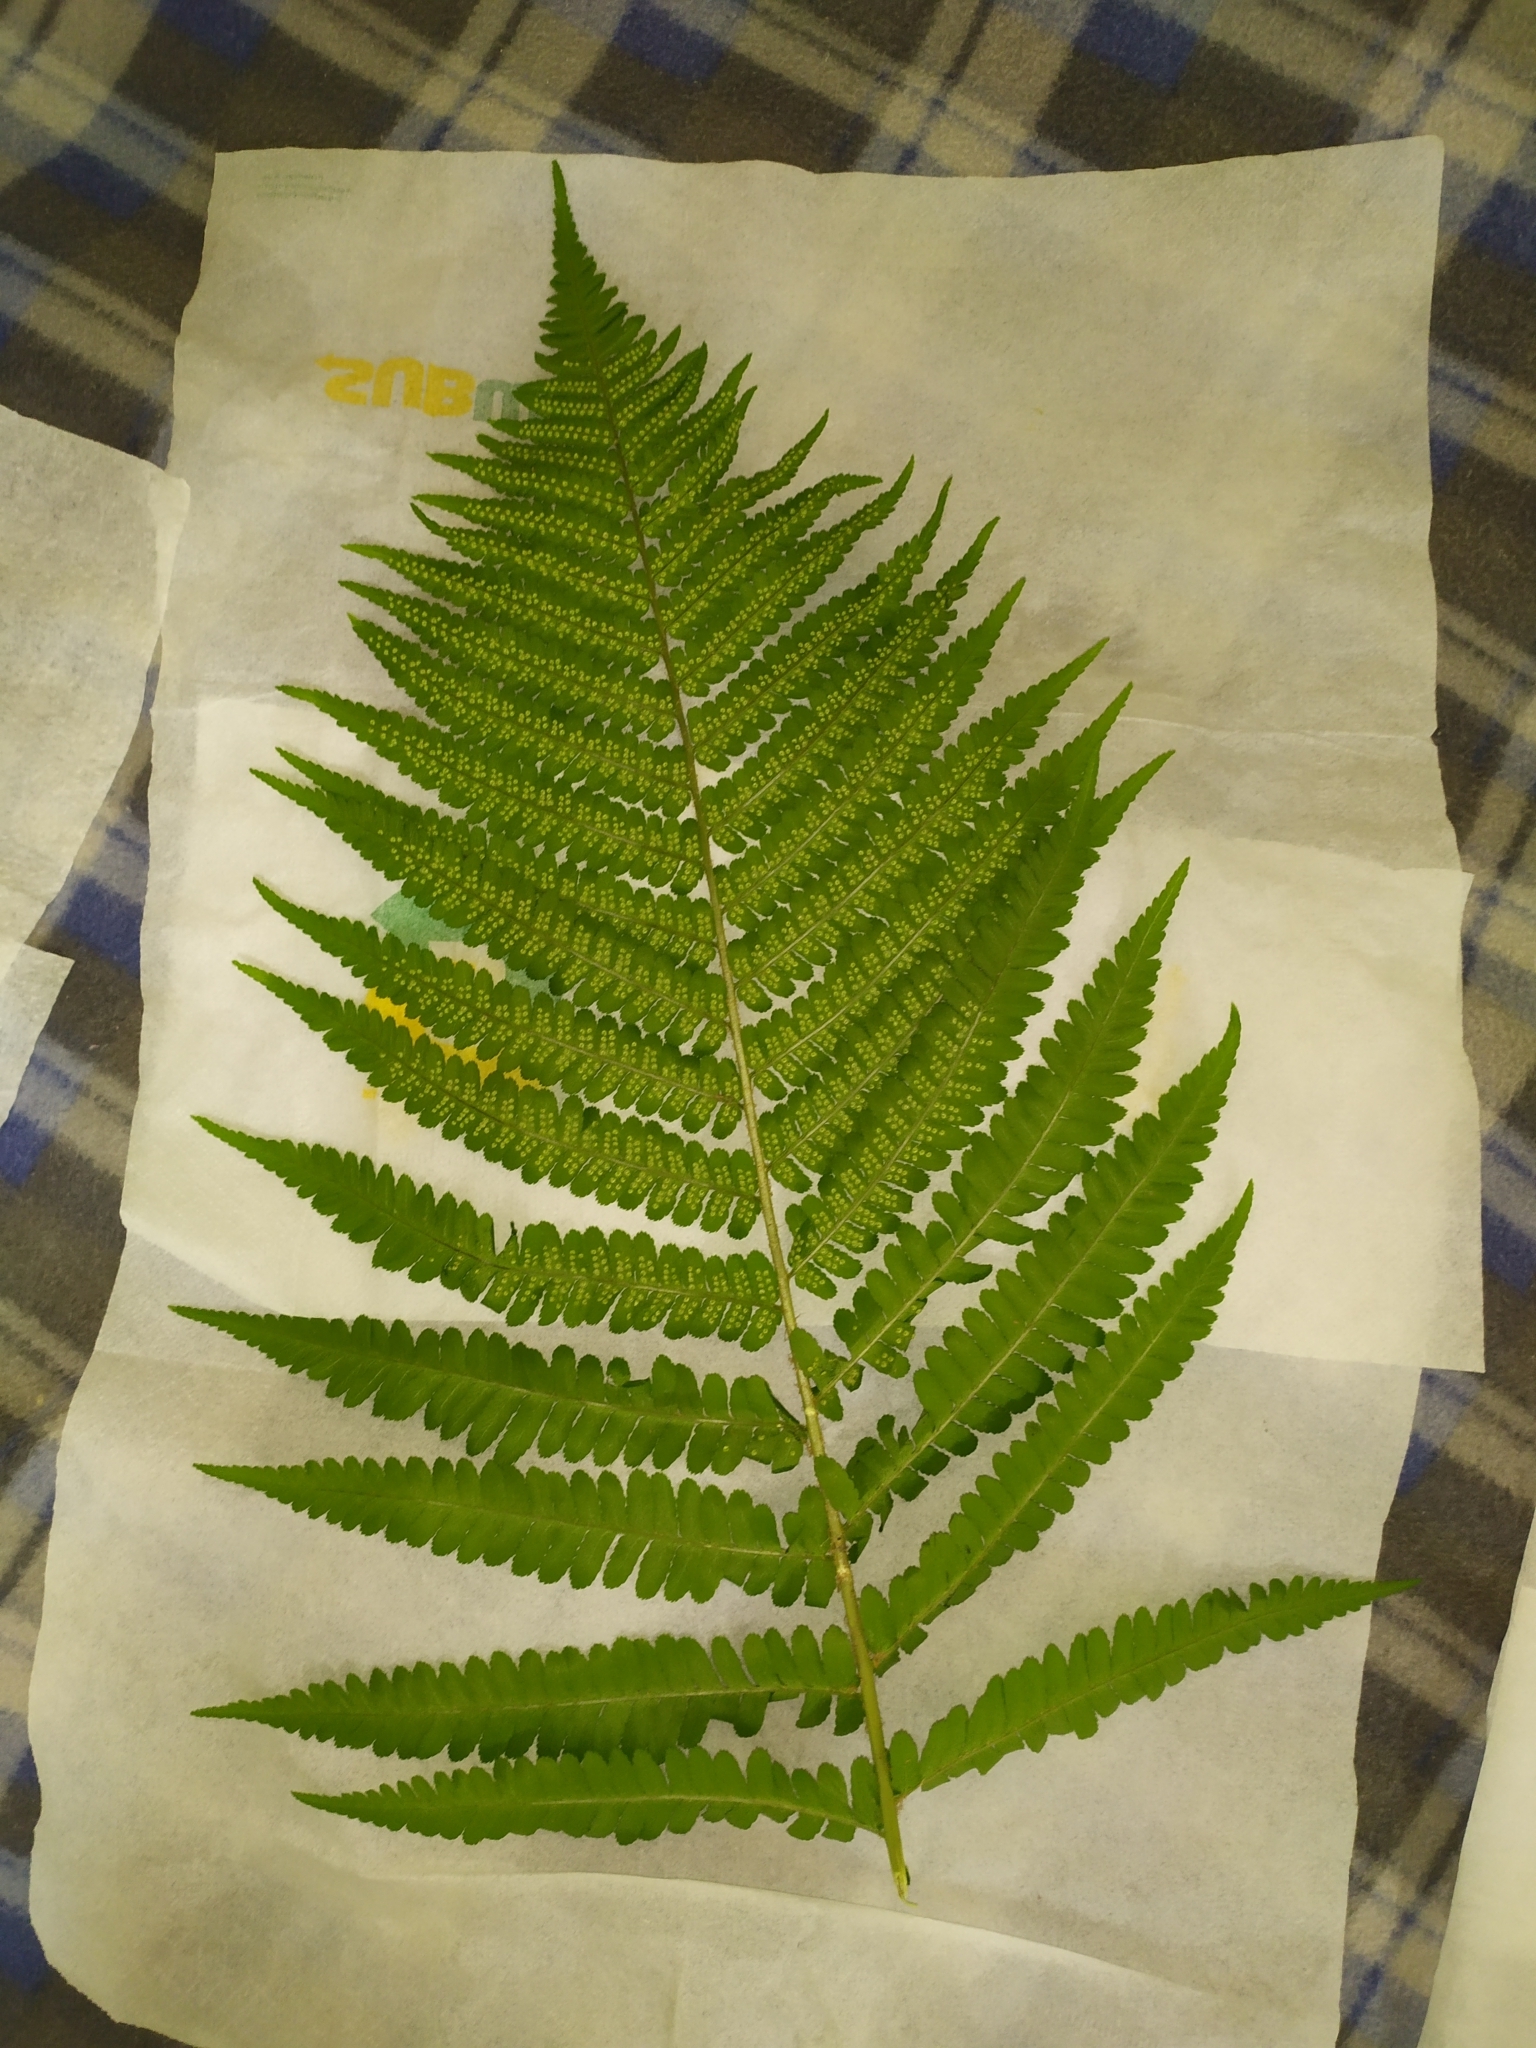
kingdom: Plantae
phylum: Tracheophyta
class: Polypodiopsida
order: Polypodiales
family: Dryopteridaceae
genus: Dryopteris
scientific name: Dryopteris filix-mas
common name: Male fern
